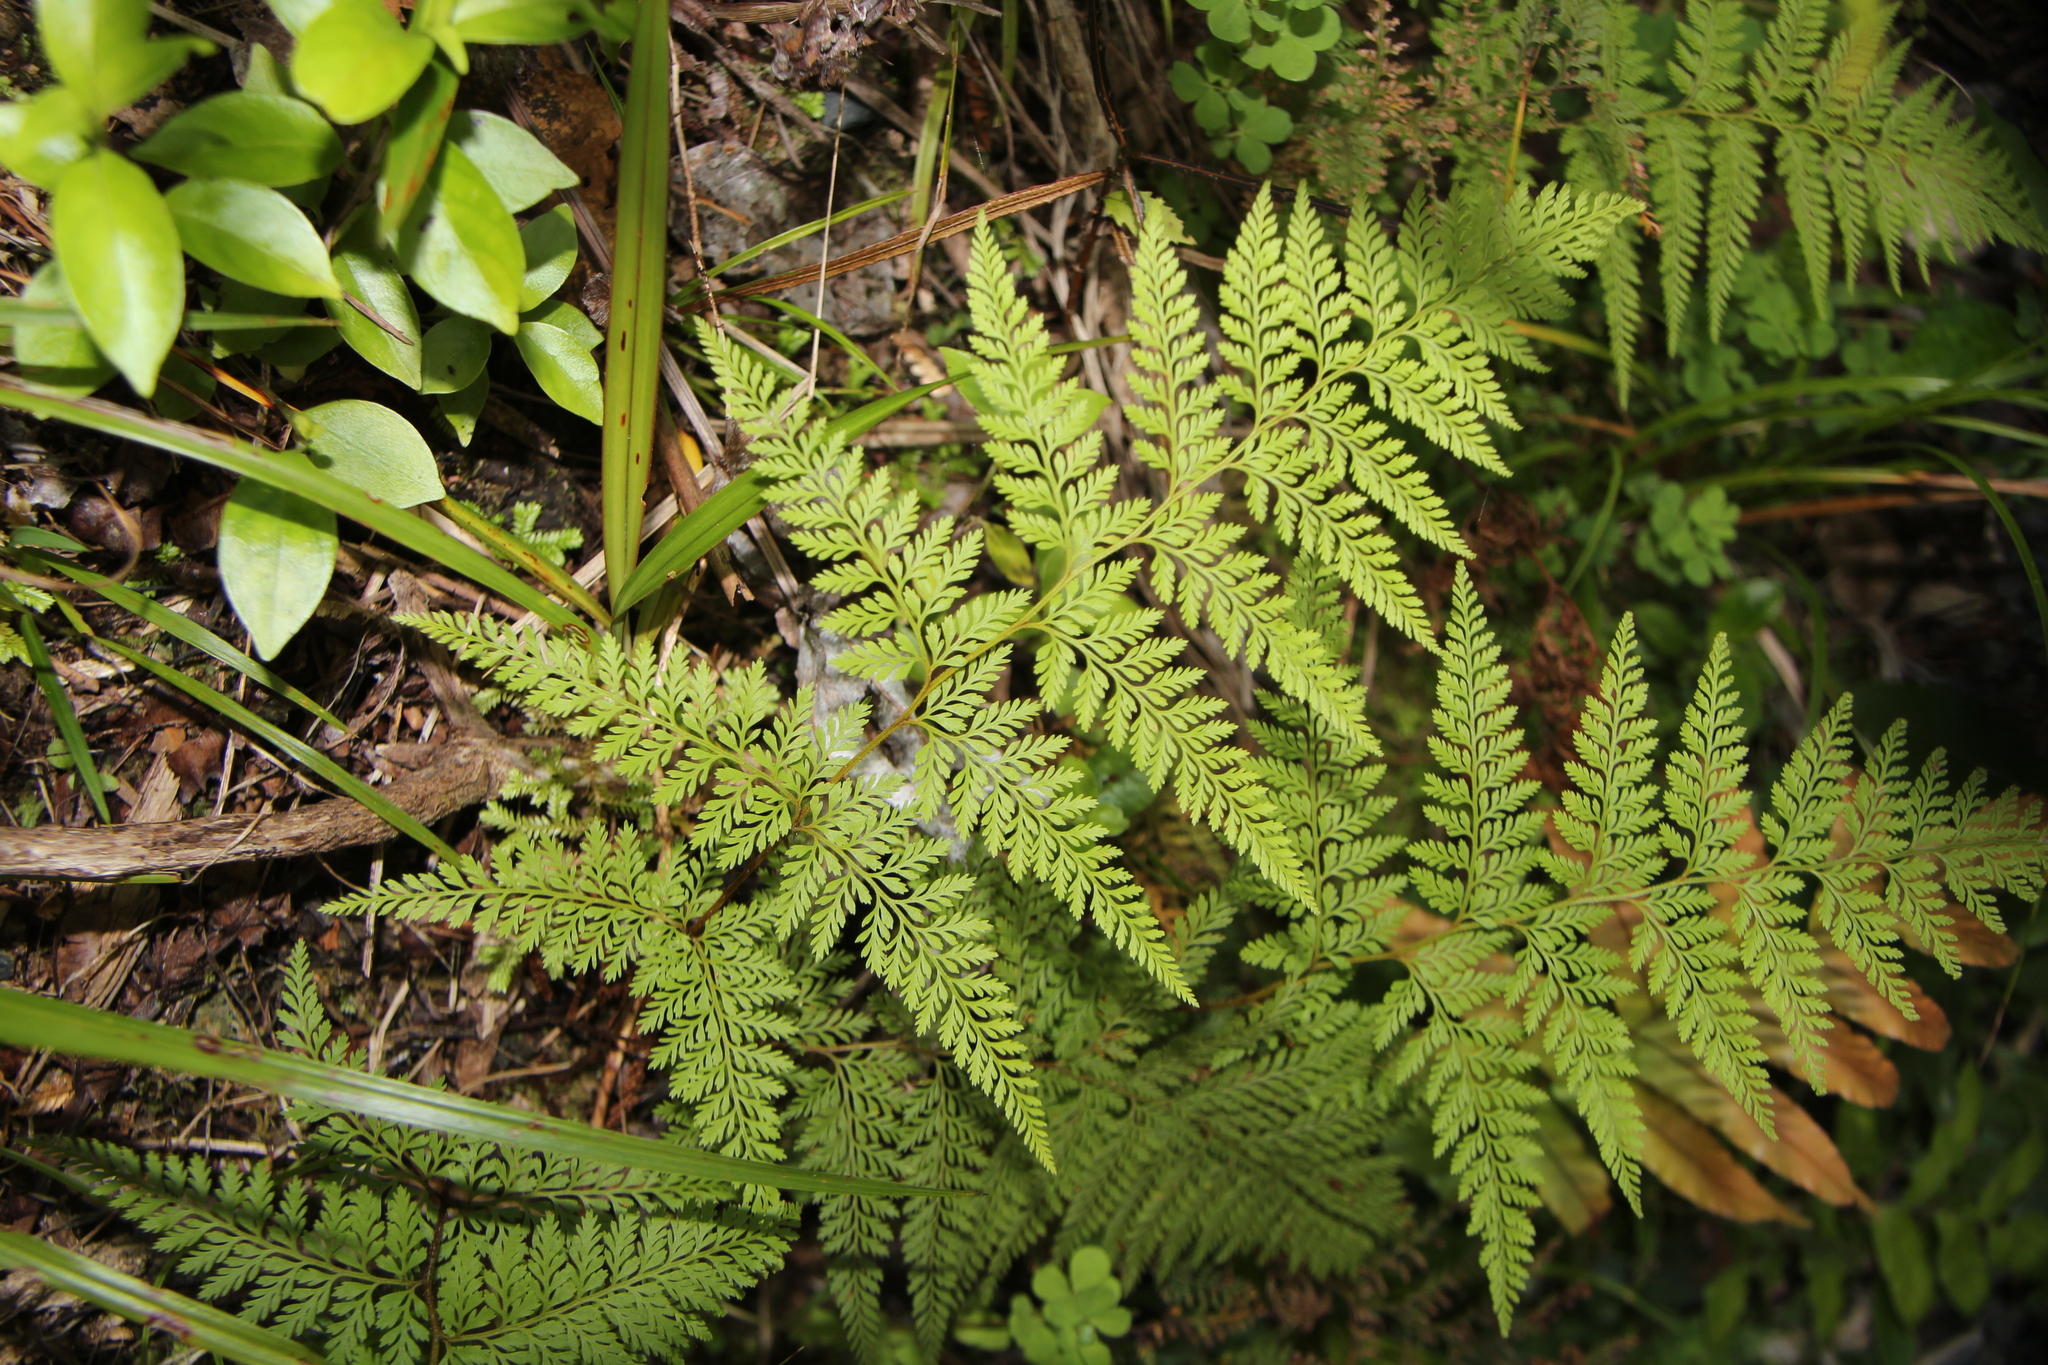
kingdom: Plantae
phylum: Tracheophyta
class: Polypodiopsida
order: Polypodiales
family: Dennstaedtiaceae
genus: Paesia
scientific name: Paesia scaberula
